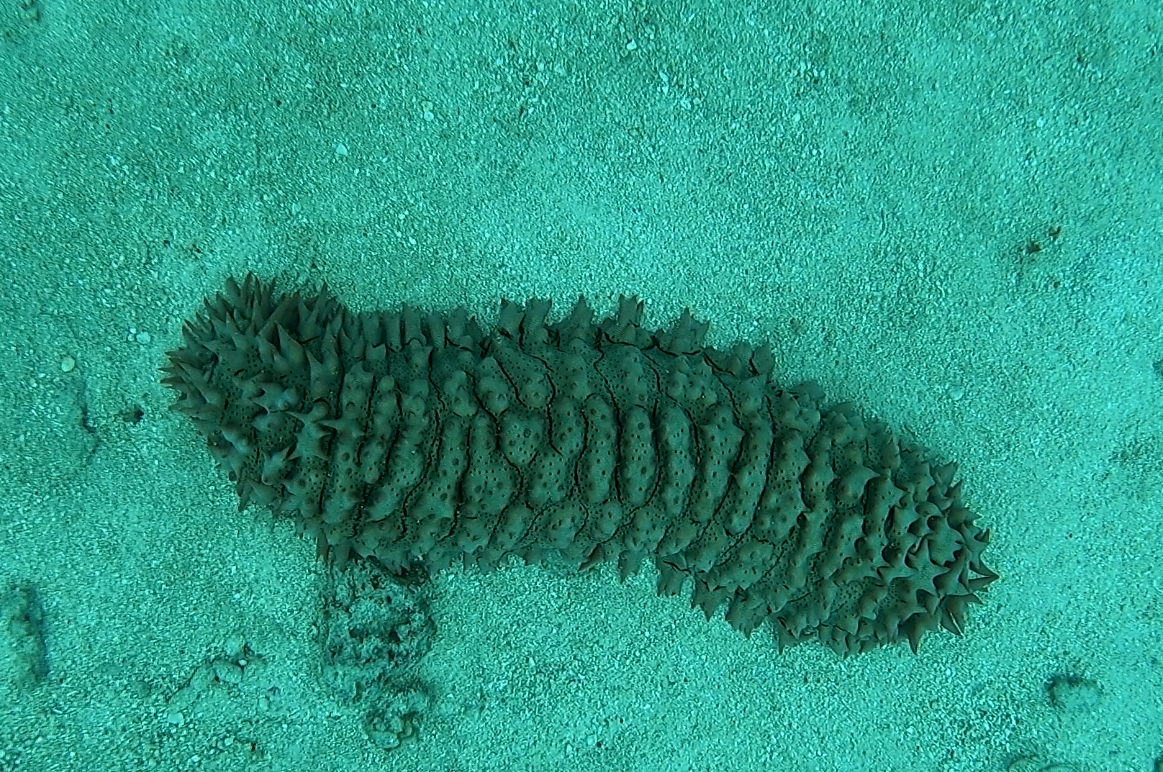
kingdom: Animalia
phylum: Echinodermata
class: Holothuroidea
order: Synallactida
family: Stichopodidae
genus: Thelenota
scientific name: Thelenota ananas
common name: Prickly redfish
